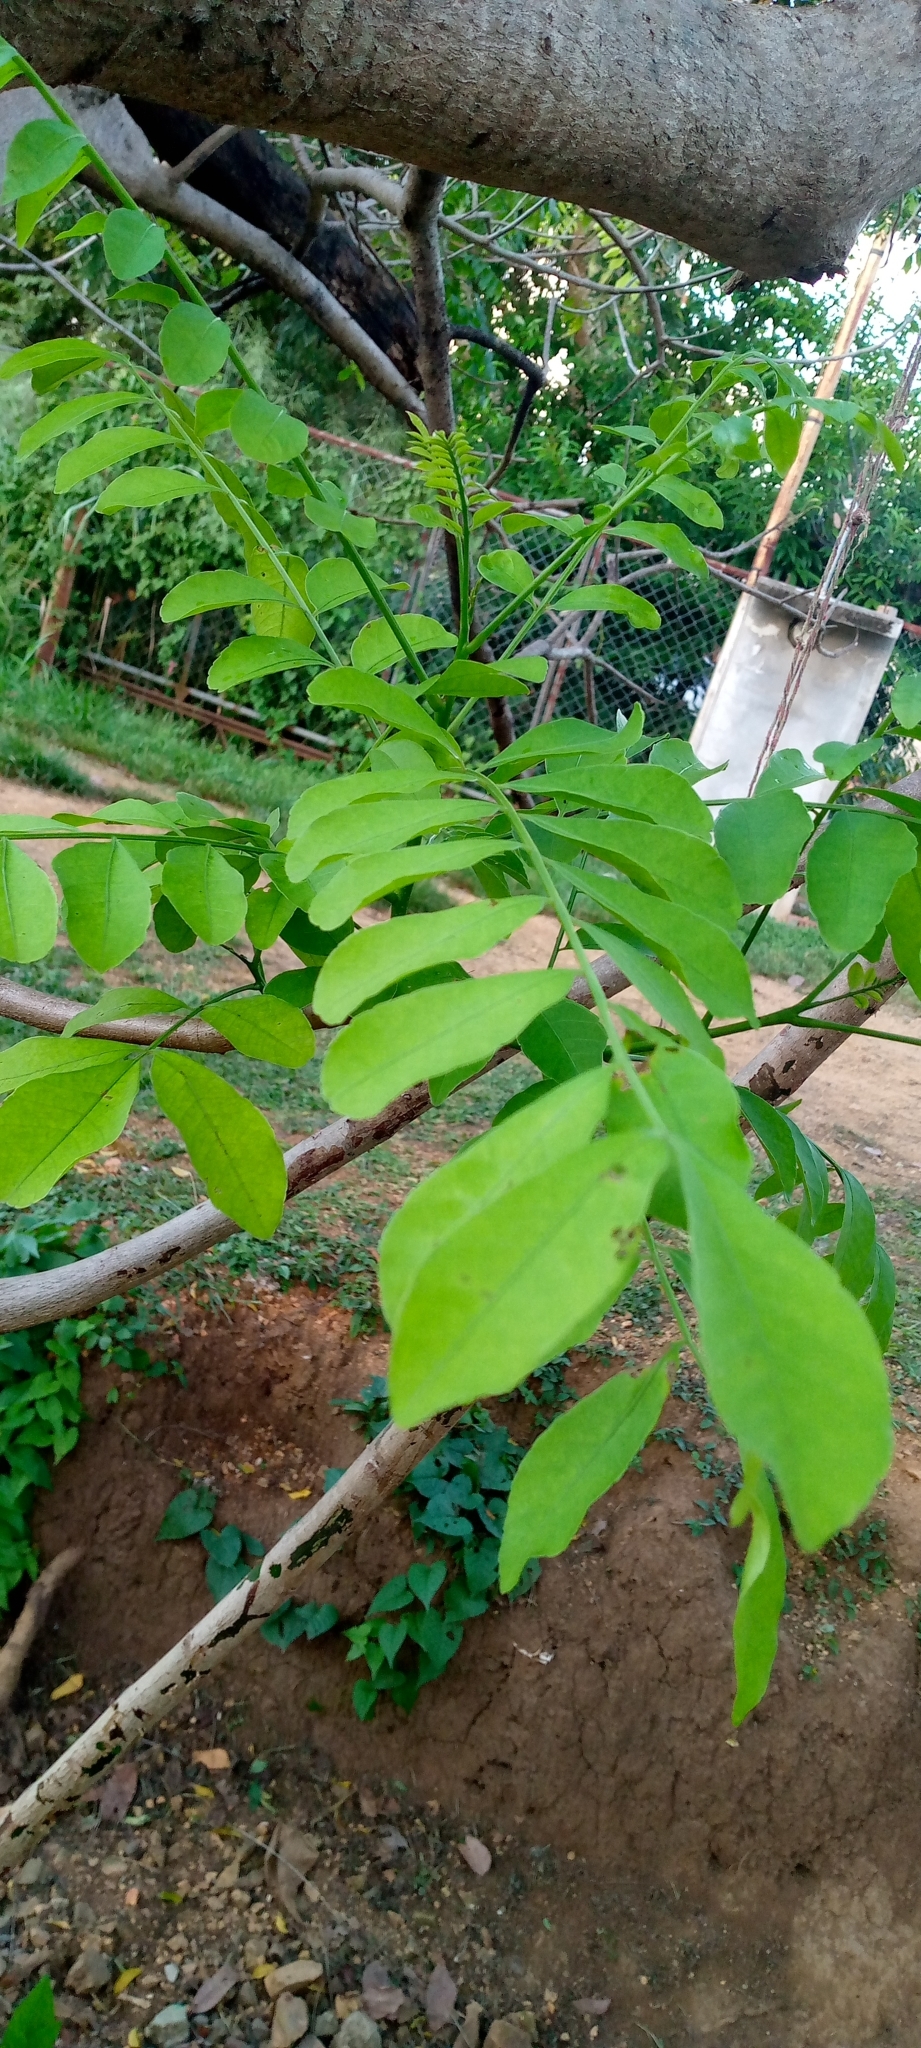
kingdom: Plantae
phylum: Tracheophyta
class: Magnoliopsida
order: Sapindales
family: Anacardiaceae
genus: Spondias
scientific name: Spondias purpurea
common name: Purple mombin
